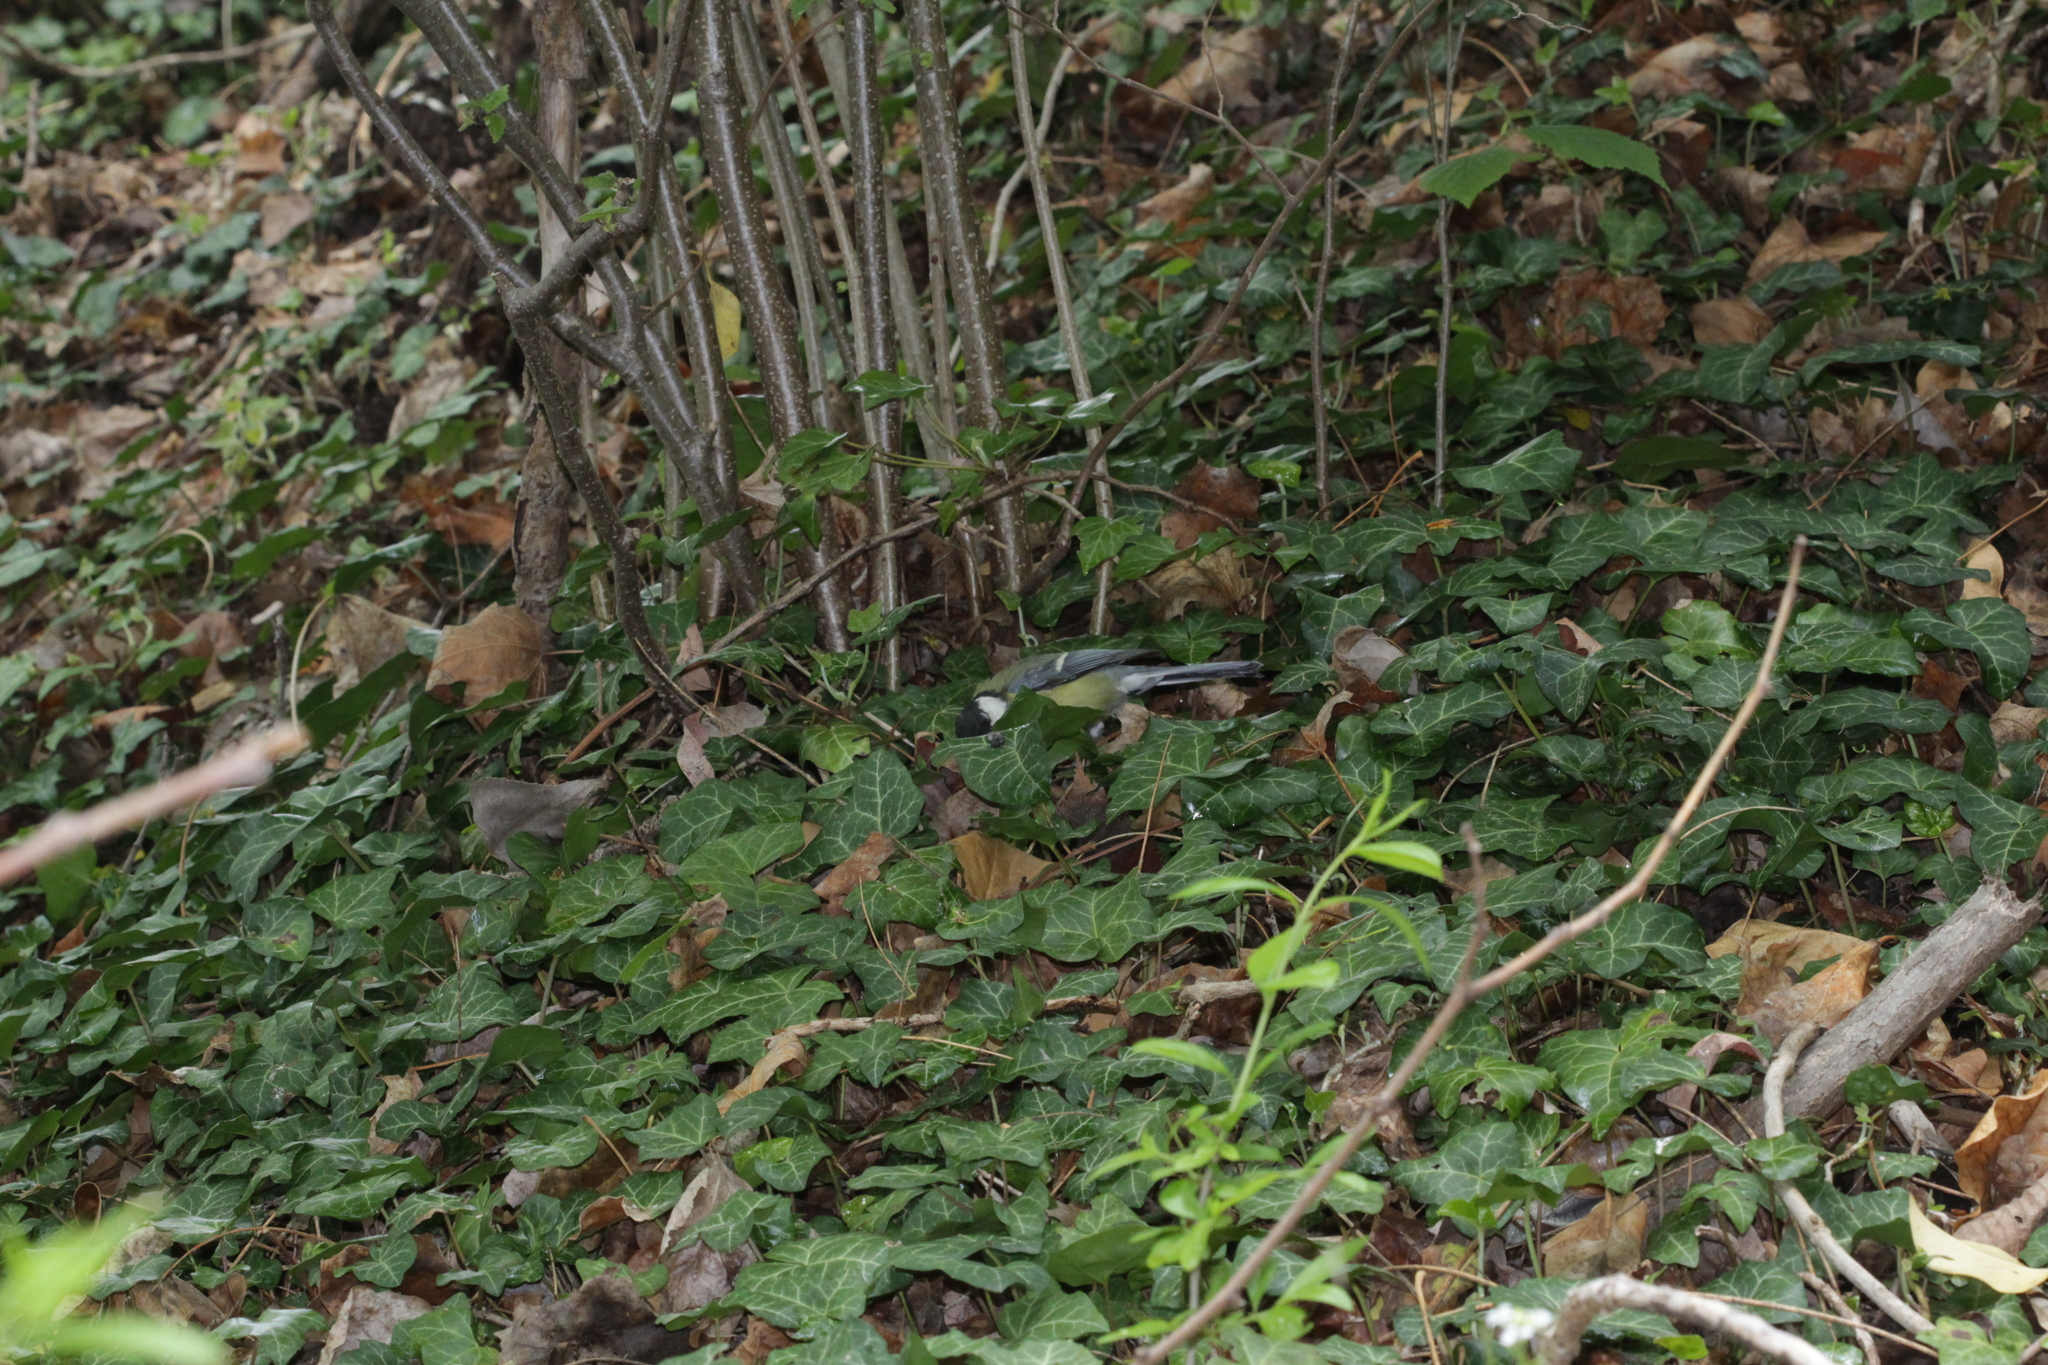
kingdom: Animalia
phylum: Chordata
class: Aves
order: Passeriformes
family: Paridae
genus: Parus
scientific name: Parus major
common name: Great tit
